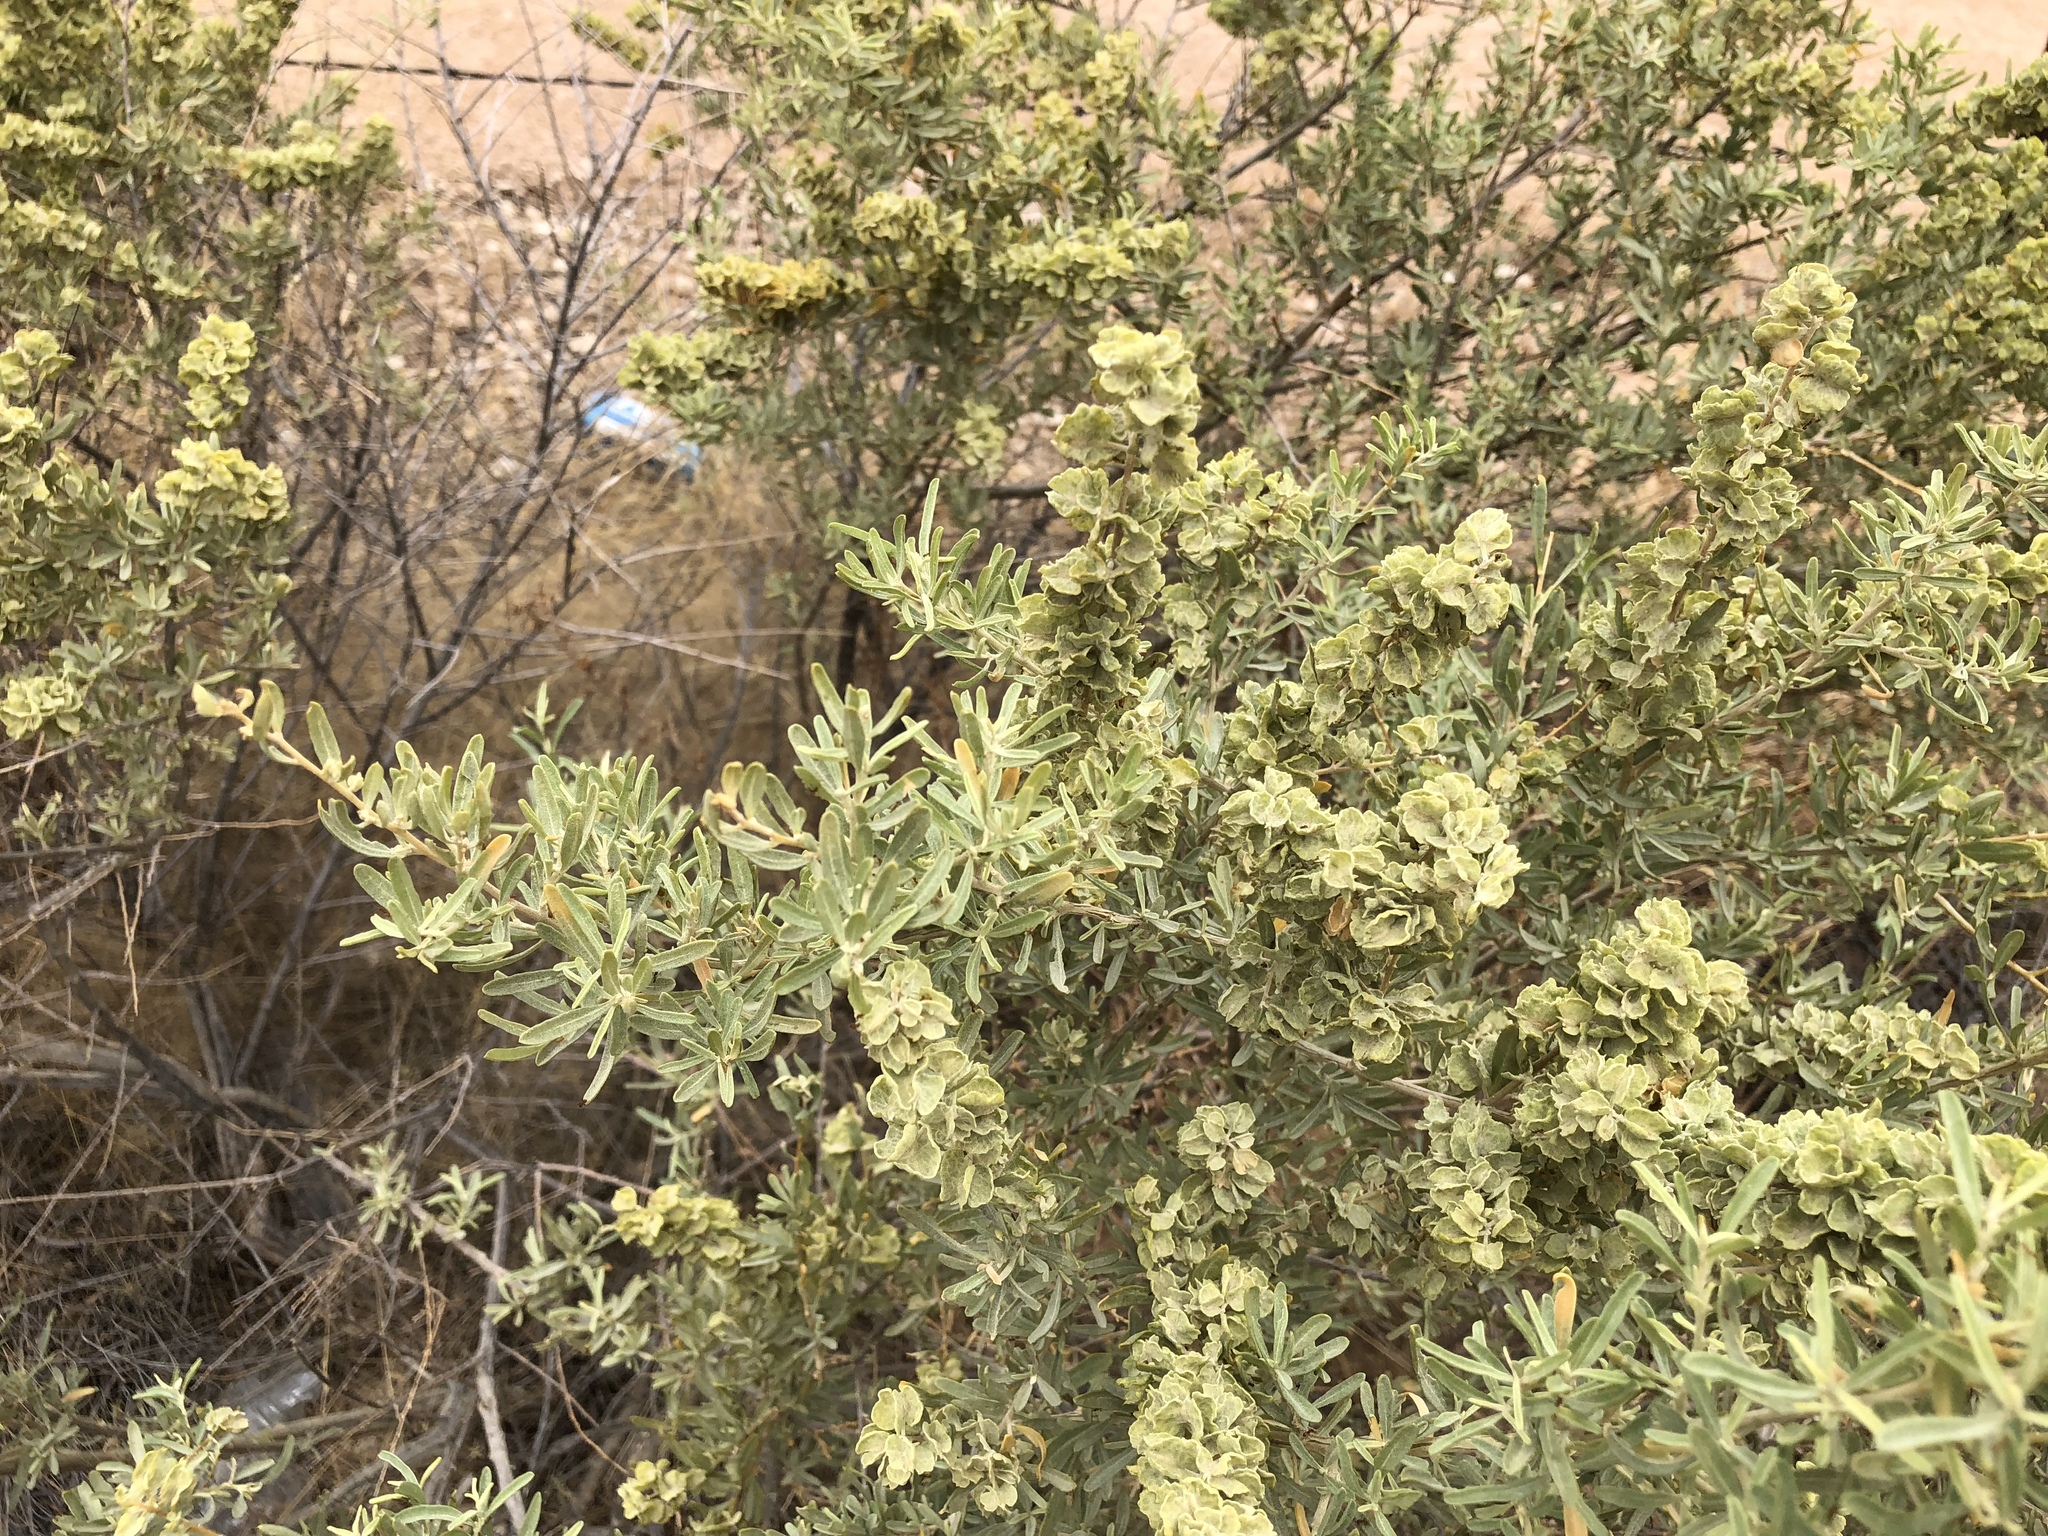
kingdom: Plantae
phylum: Tracheophyta
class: Magnoliopsida
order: Caryophyllales
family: Amaranthaceae
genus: Atriplex
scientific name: Atriplex canescens
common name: Four-wing saltbush
